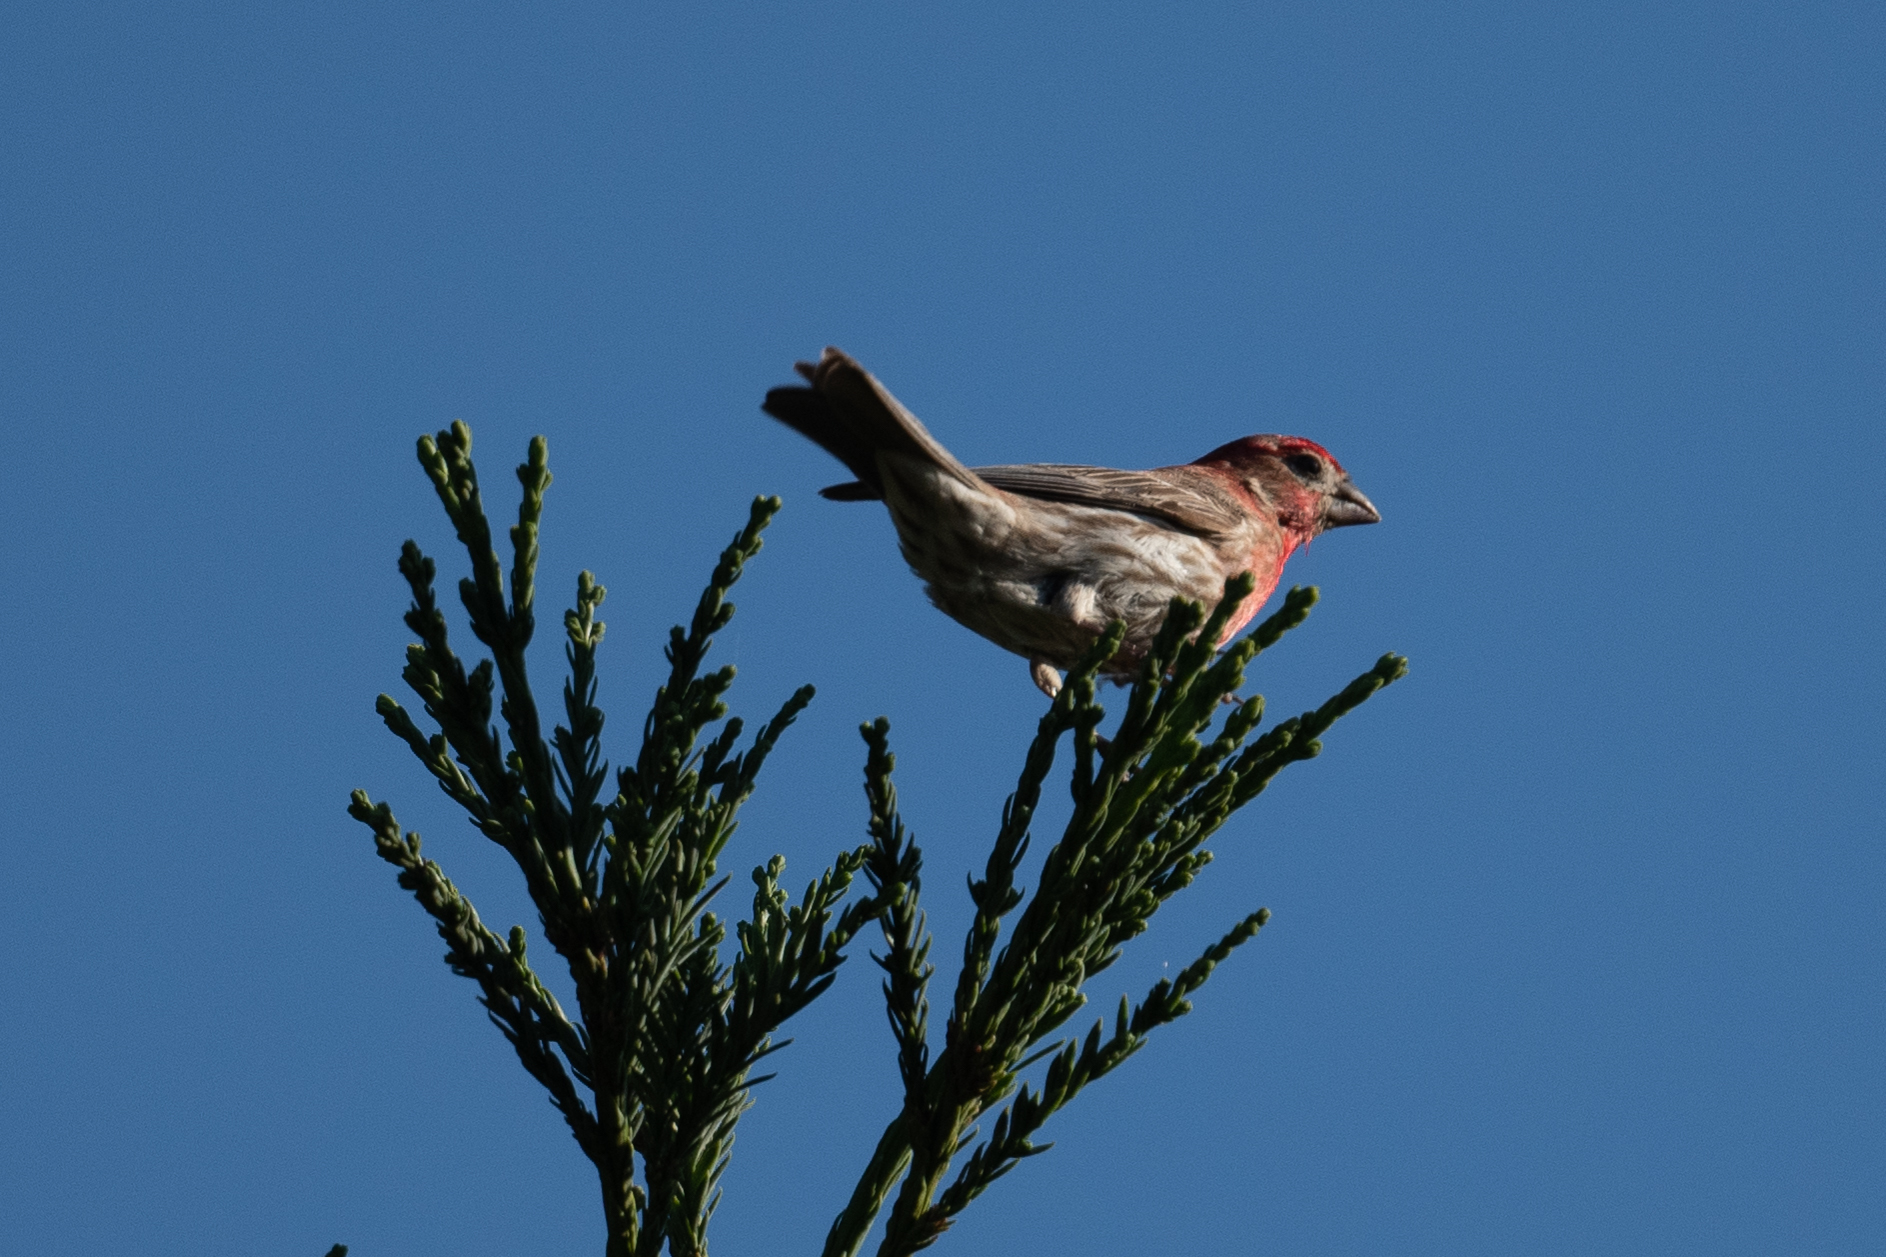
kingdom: Animalia
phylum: Chordata
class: Aves
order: Passeriformes
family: Fringillidae
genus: Haemorhous
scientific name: Haemorhous mexicanus
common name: House finch
